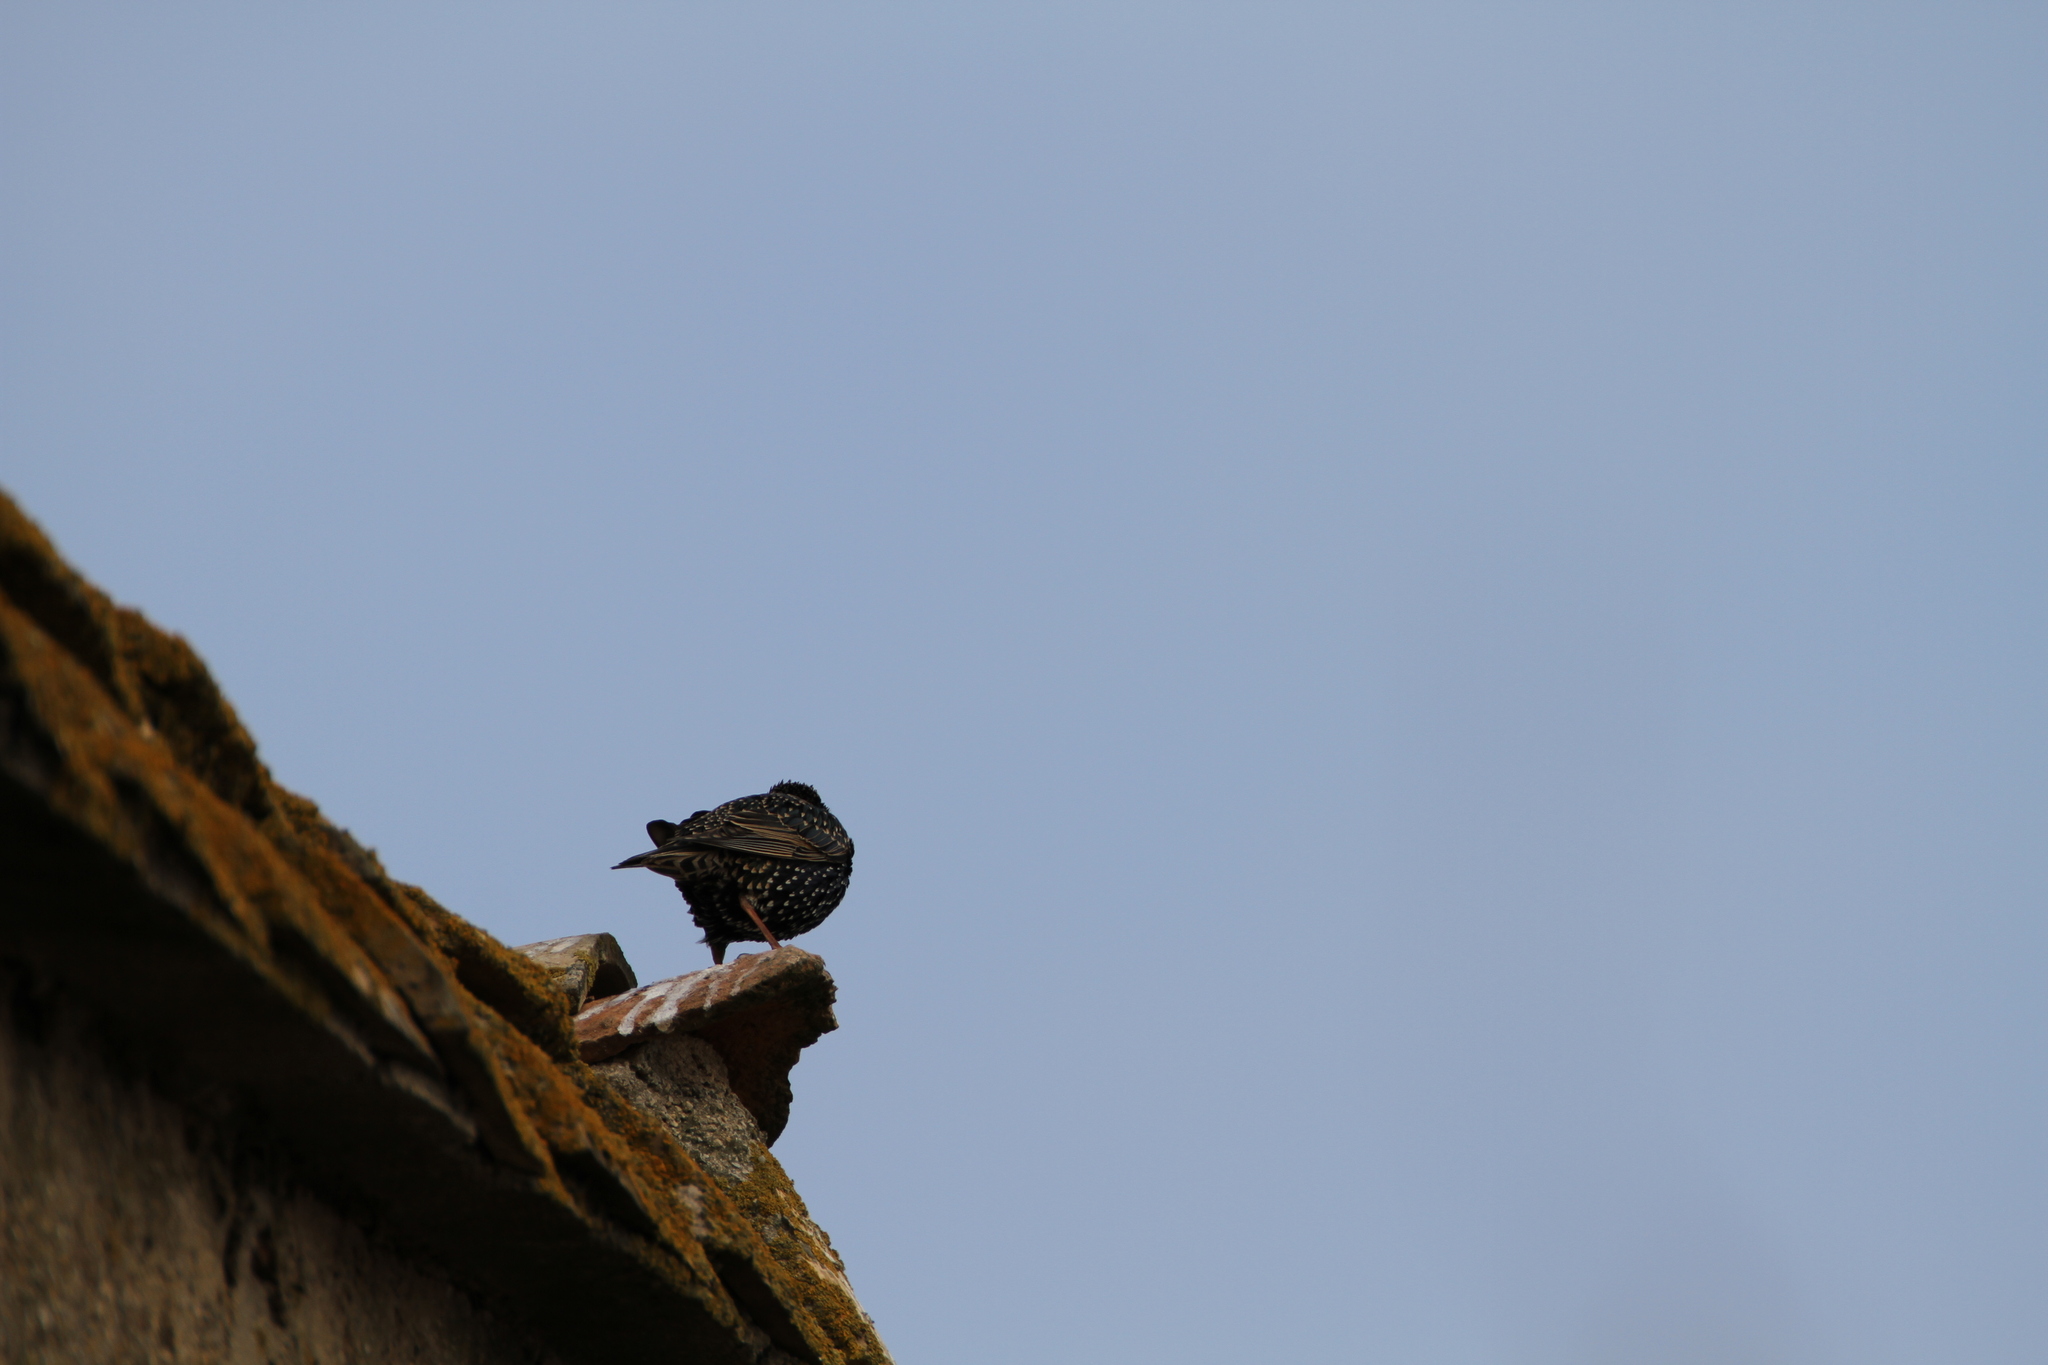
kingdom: Animalia
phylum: Chordata
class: Aves
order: Passeriformes
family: Sturnidae
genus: Sturnus
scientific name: Sturnus vulgaris
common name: Common starling
